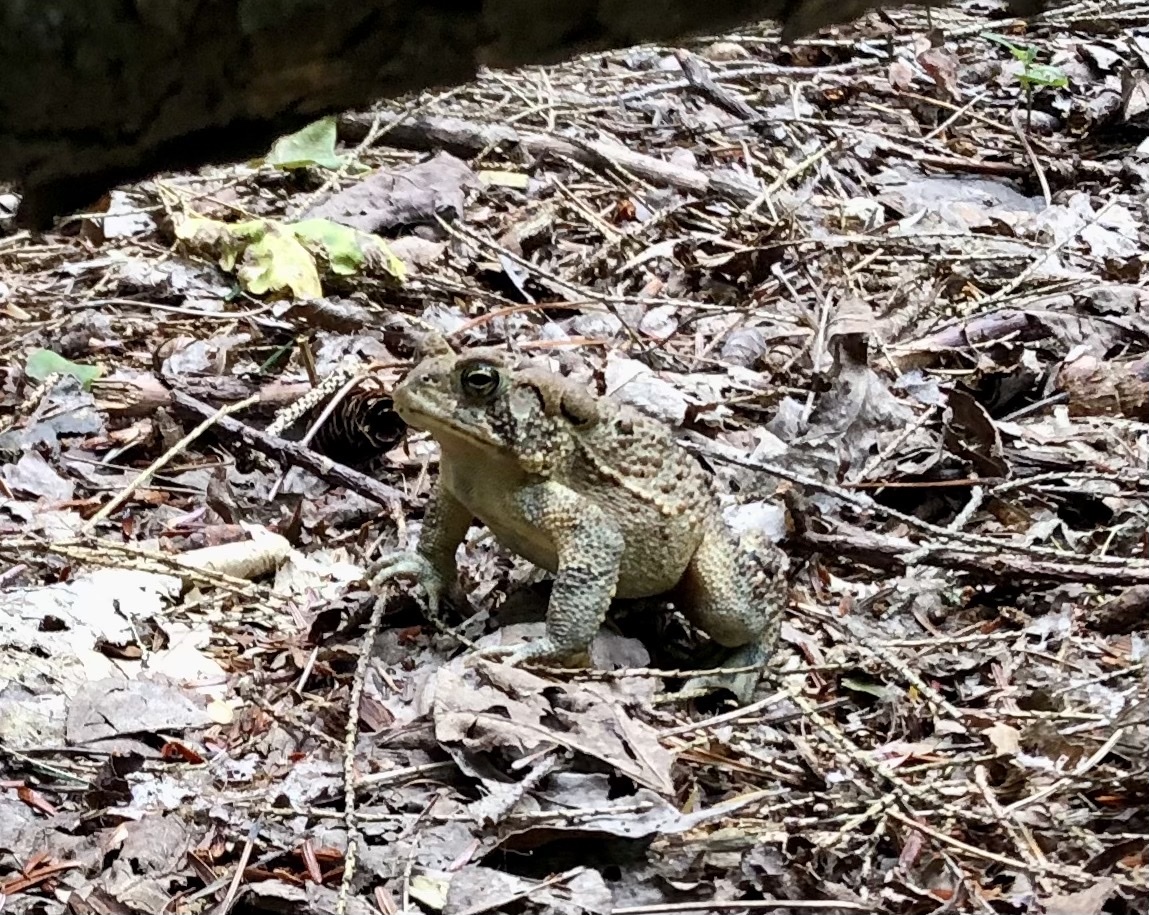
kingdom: Animalia
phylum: Chordata
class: Amphibia
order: Anura
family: Bufonidae
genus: Anaxyrus
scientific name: Anaxyrus americanus
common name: American toad
